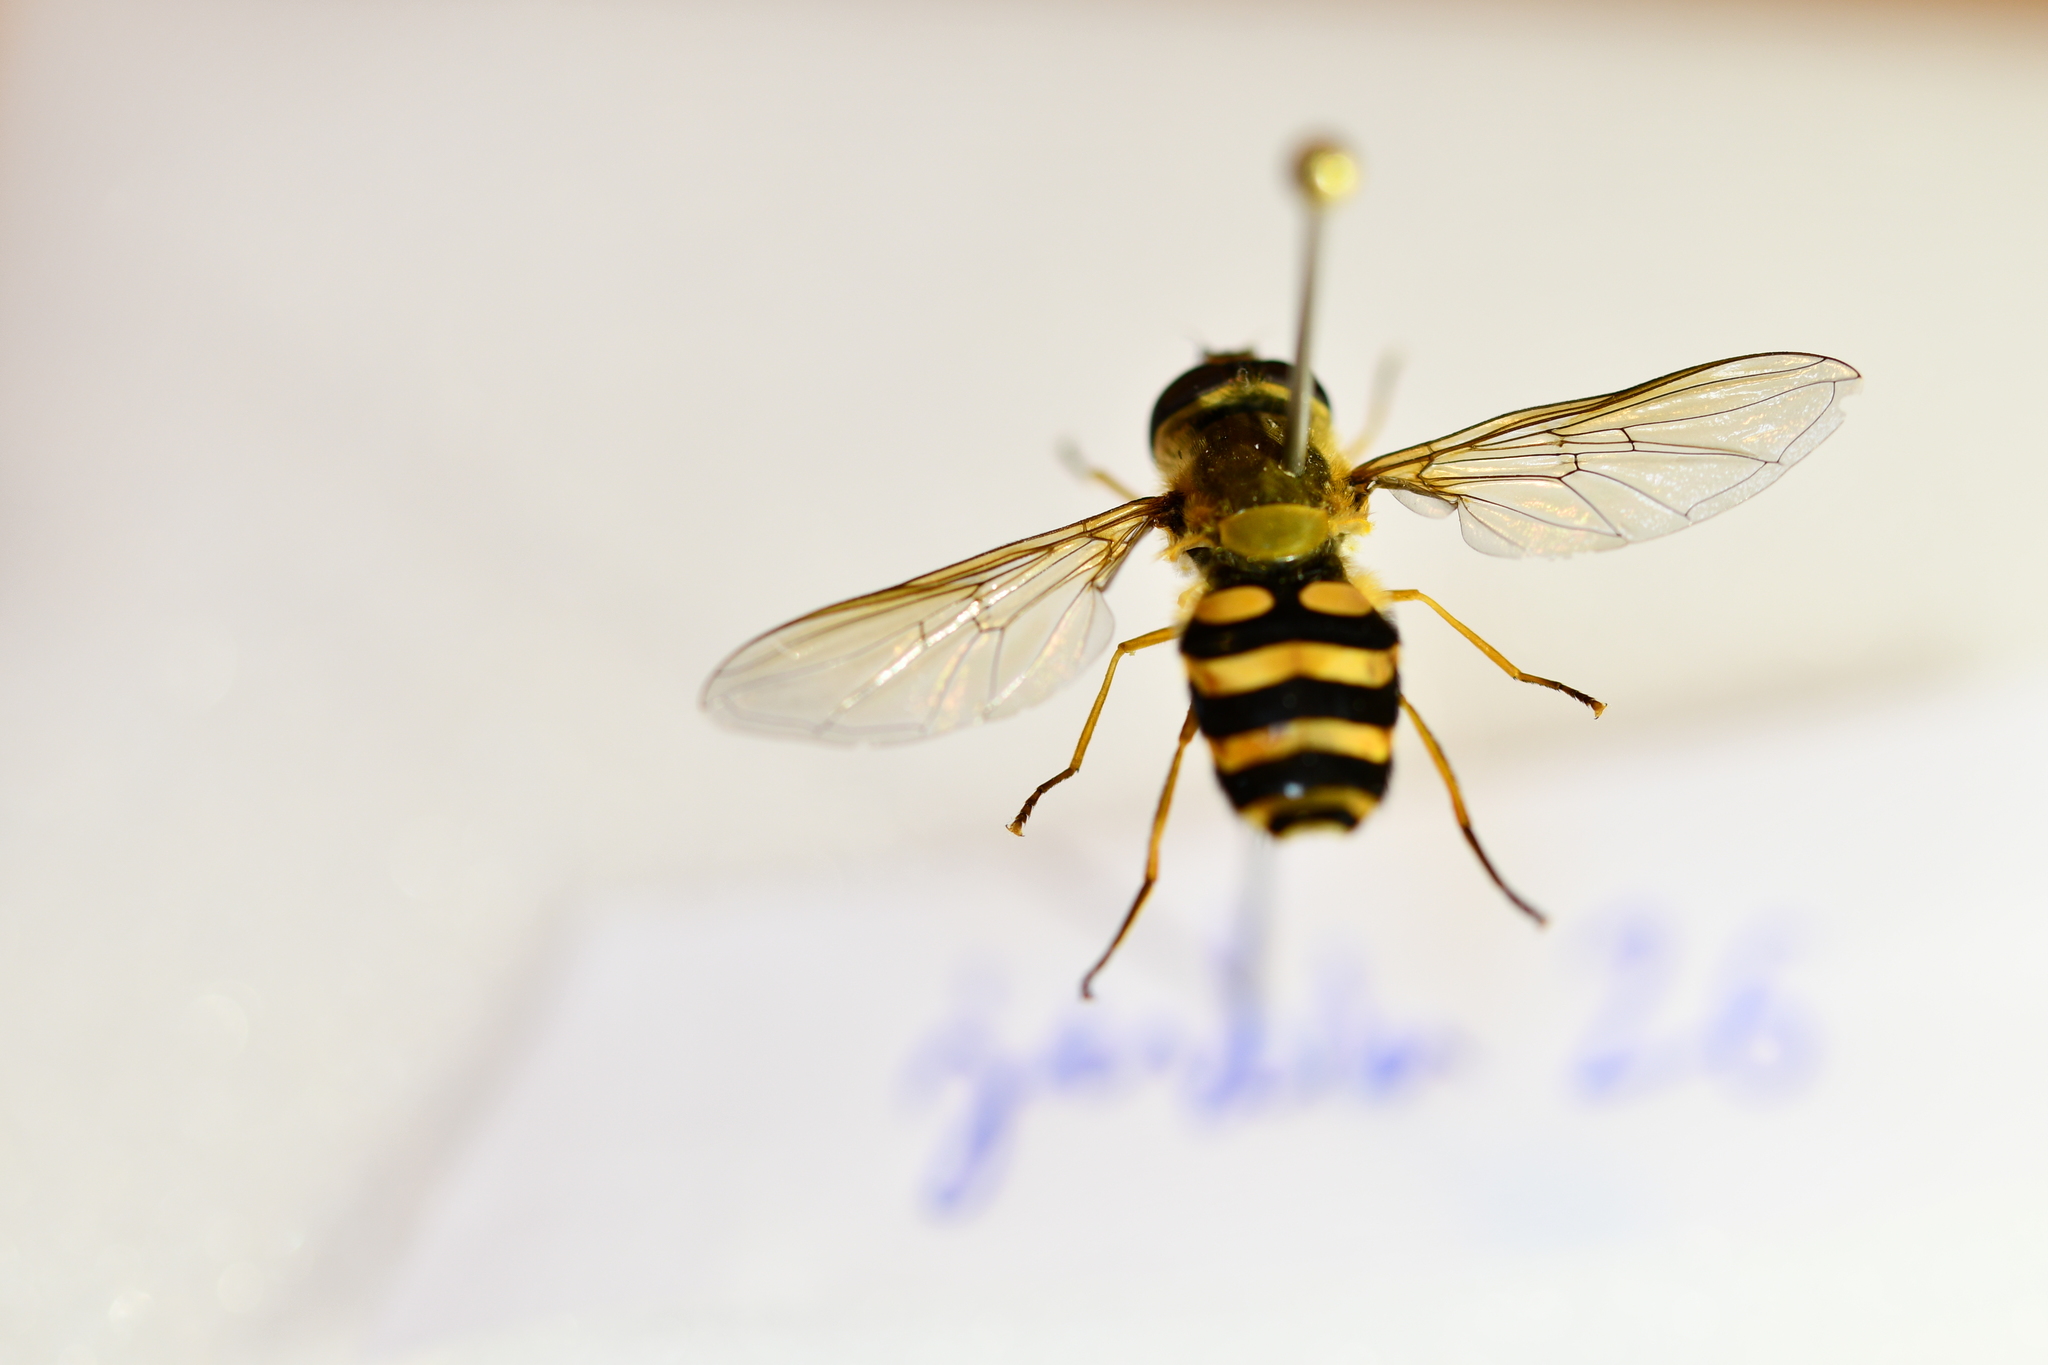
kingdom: Animalia
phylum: Arthropoda
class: Insecta
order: Diptera
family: Syrphidae
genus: Syrphus
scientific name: Syrphus ribesii
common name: Common flower fly
